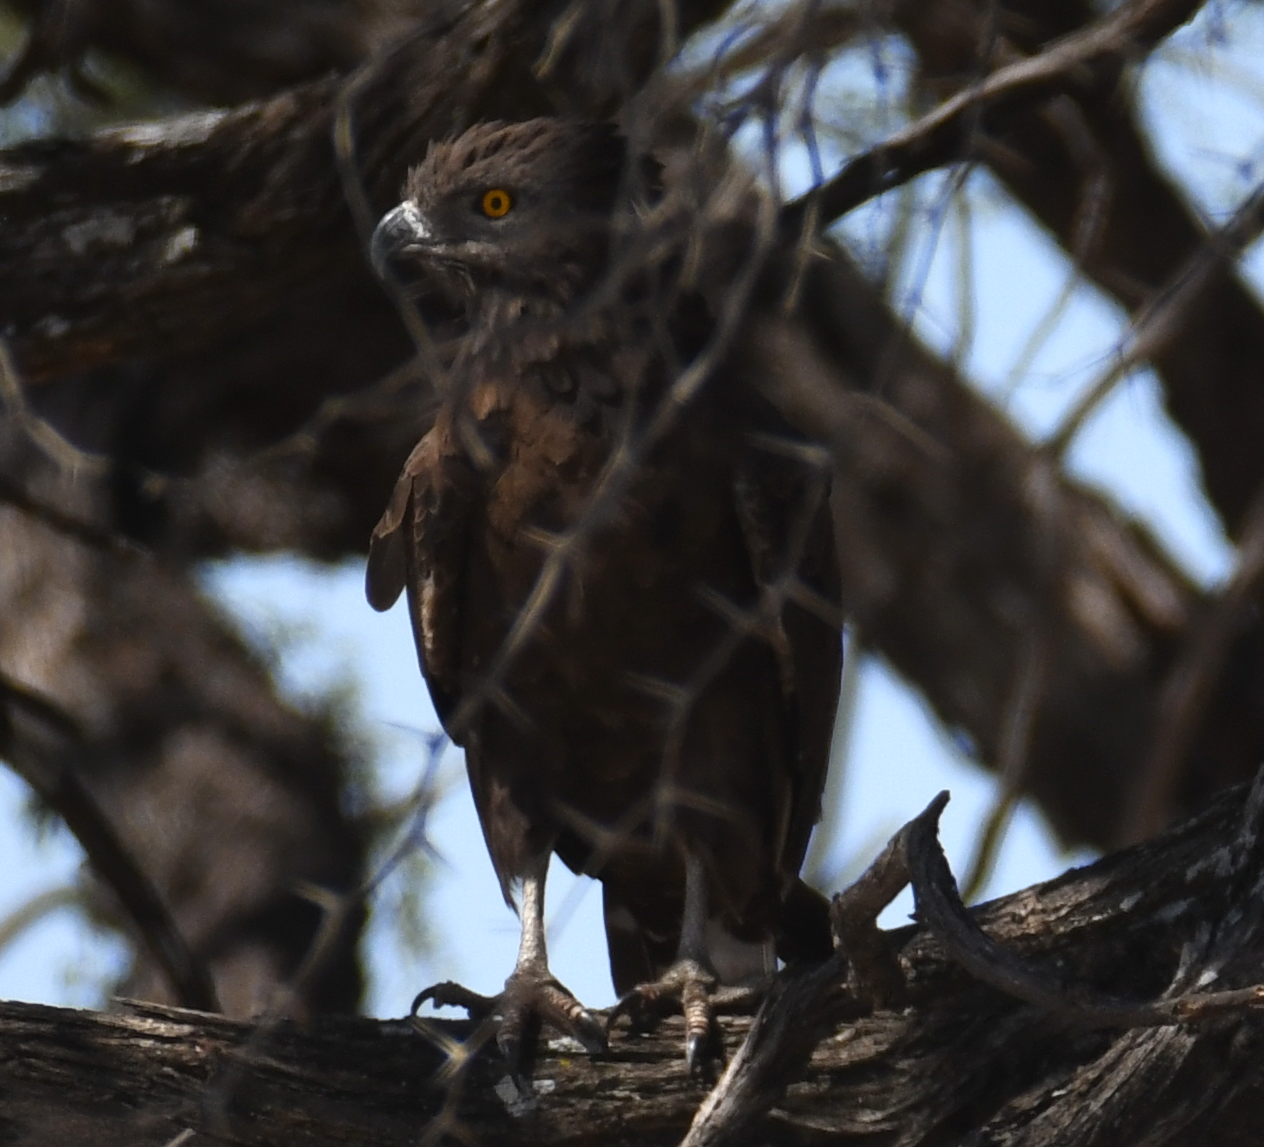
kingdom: Animalia
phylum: Chordata
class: Aves
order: Accipitriformes
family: Accipitridae
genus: Circaetus
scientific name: Circaetus cinereus
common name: Brown snake eagle
